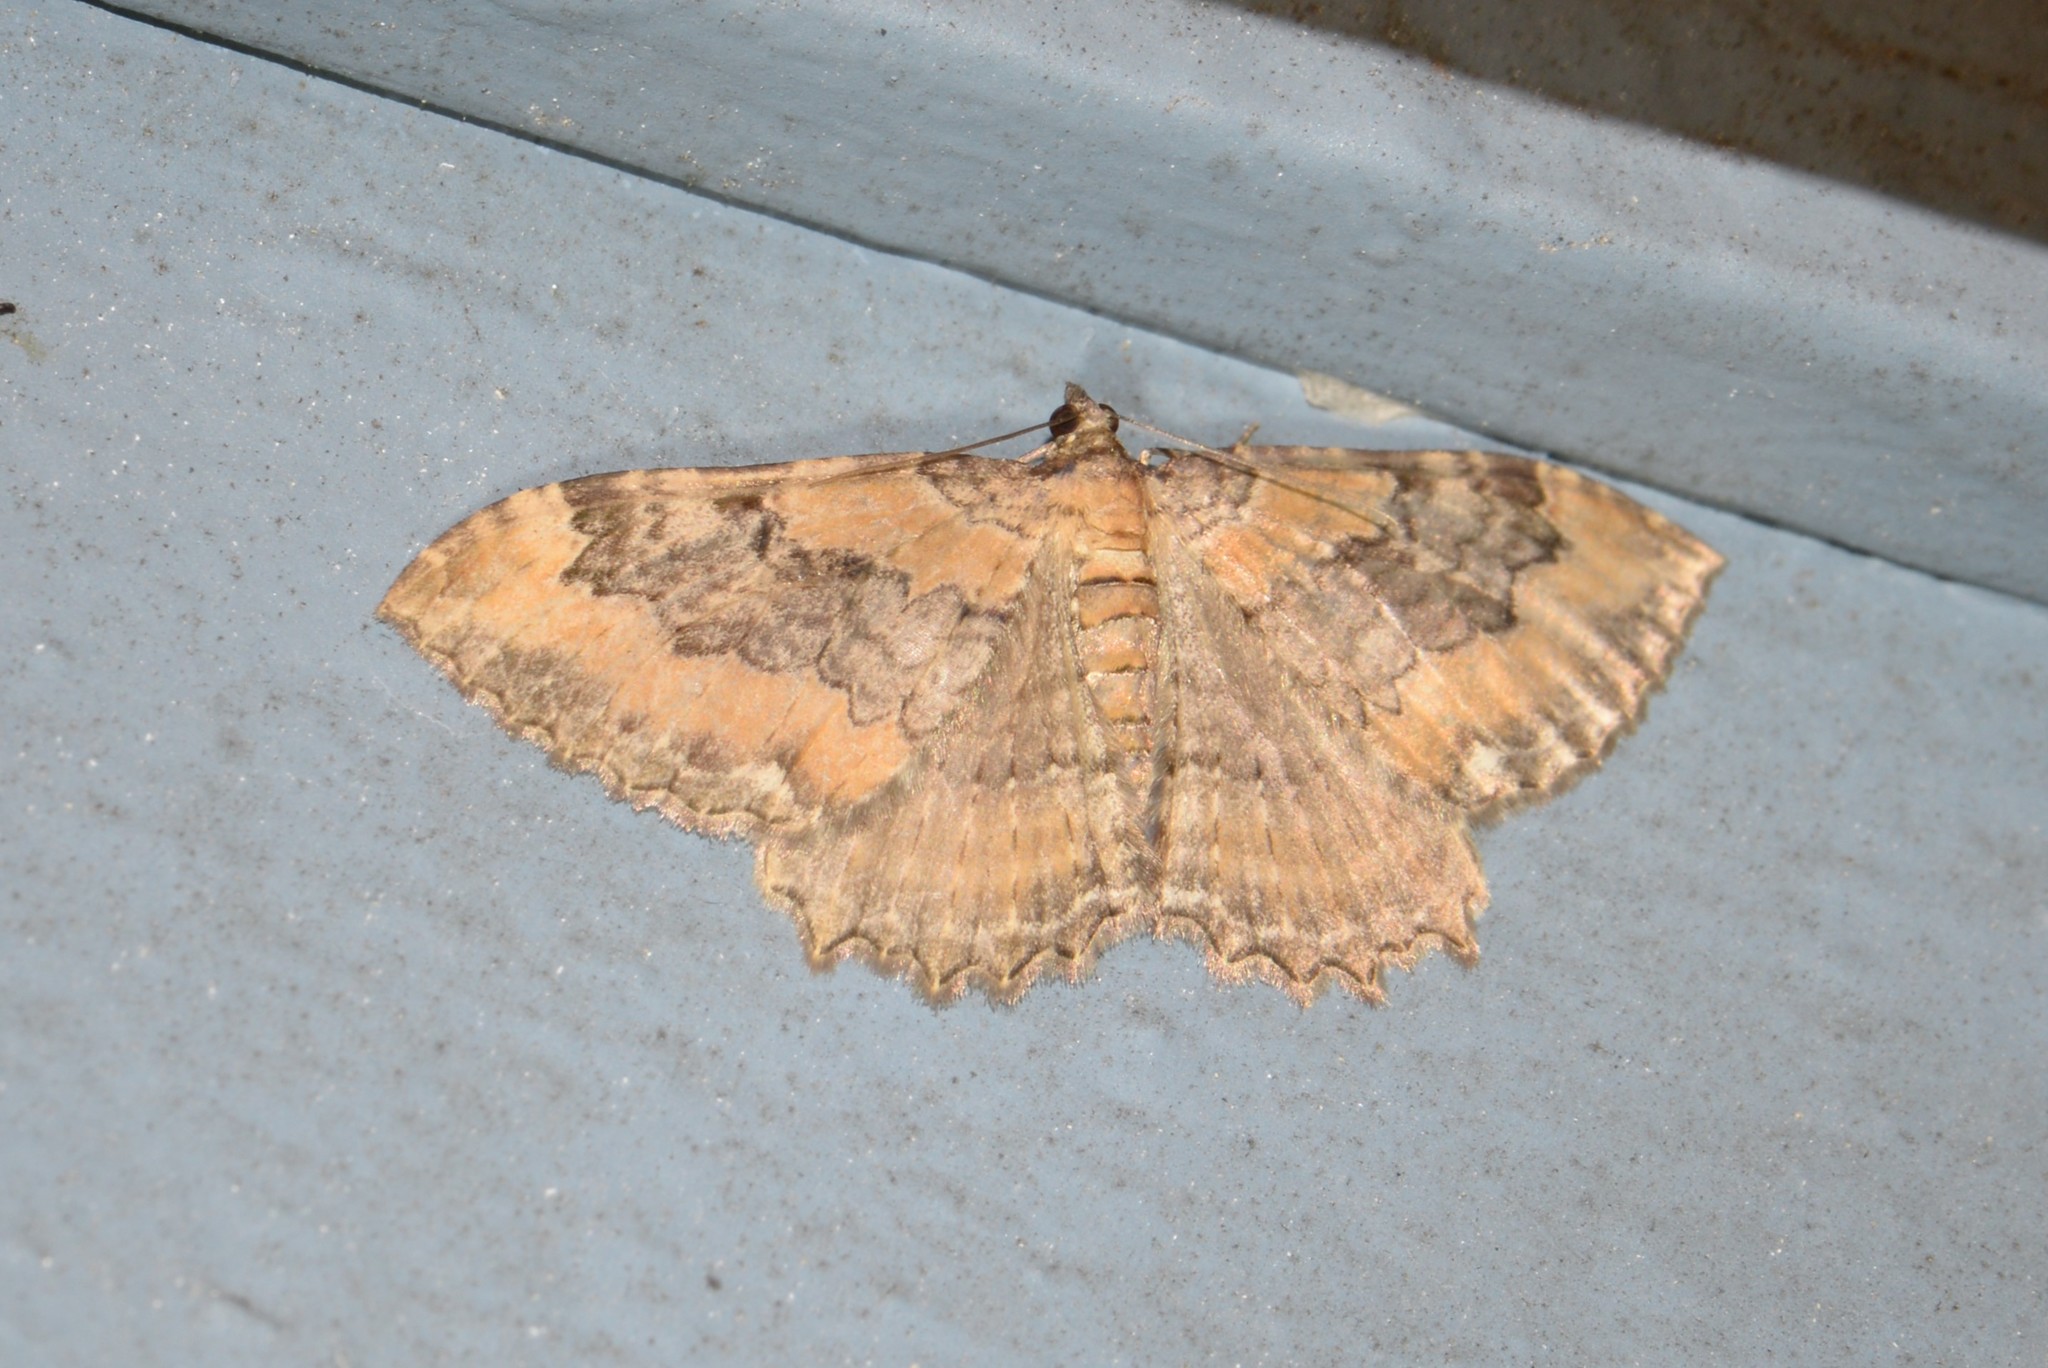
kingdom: Animalia
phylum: Arthropoda
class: Insecta
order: Lepidoptera
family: Geometridae
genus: Rheumaptera
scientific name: Rheumaptera
